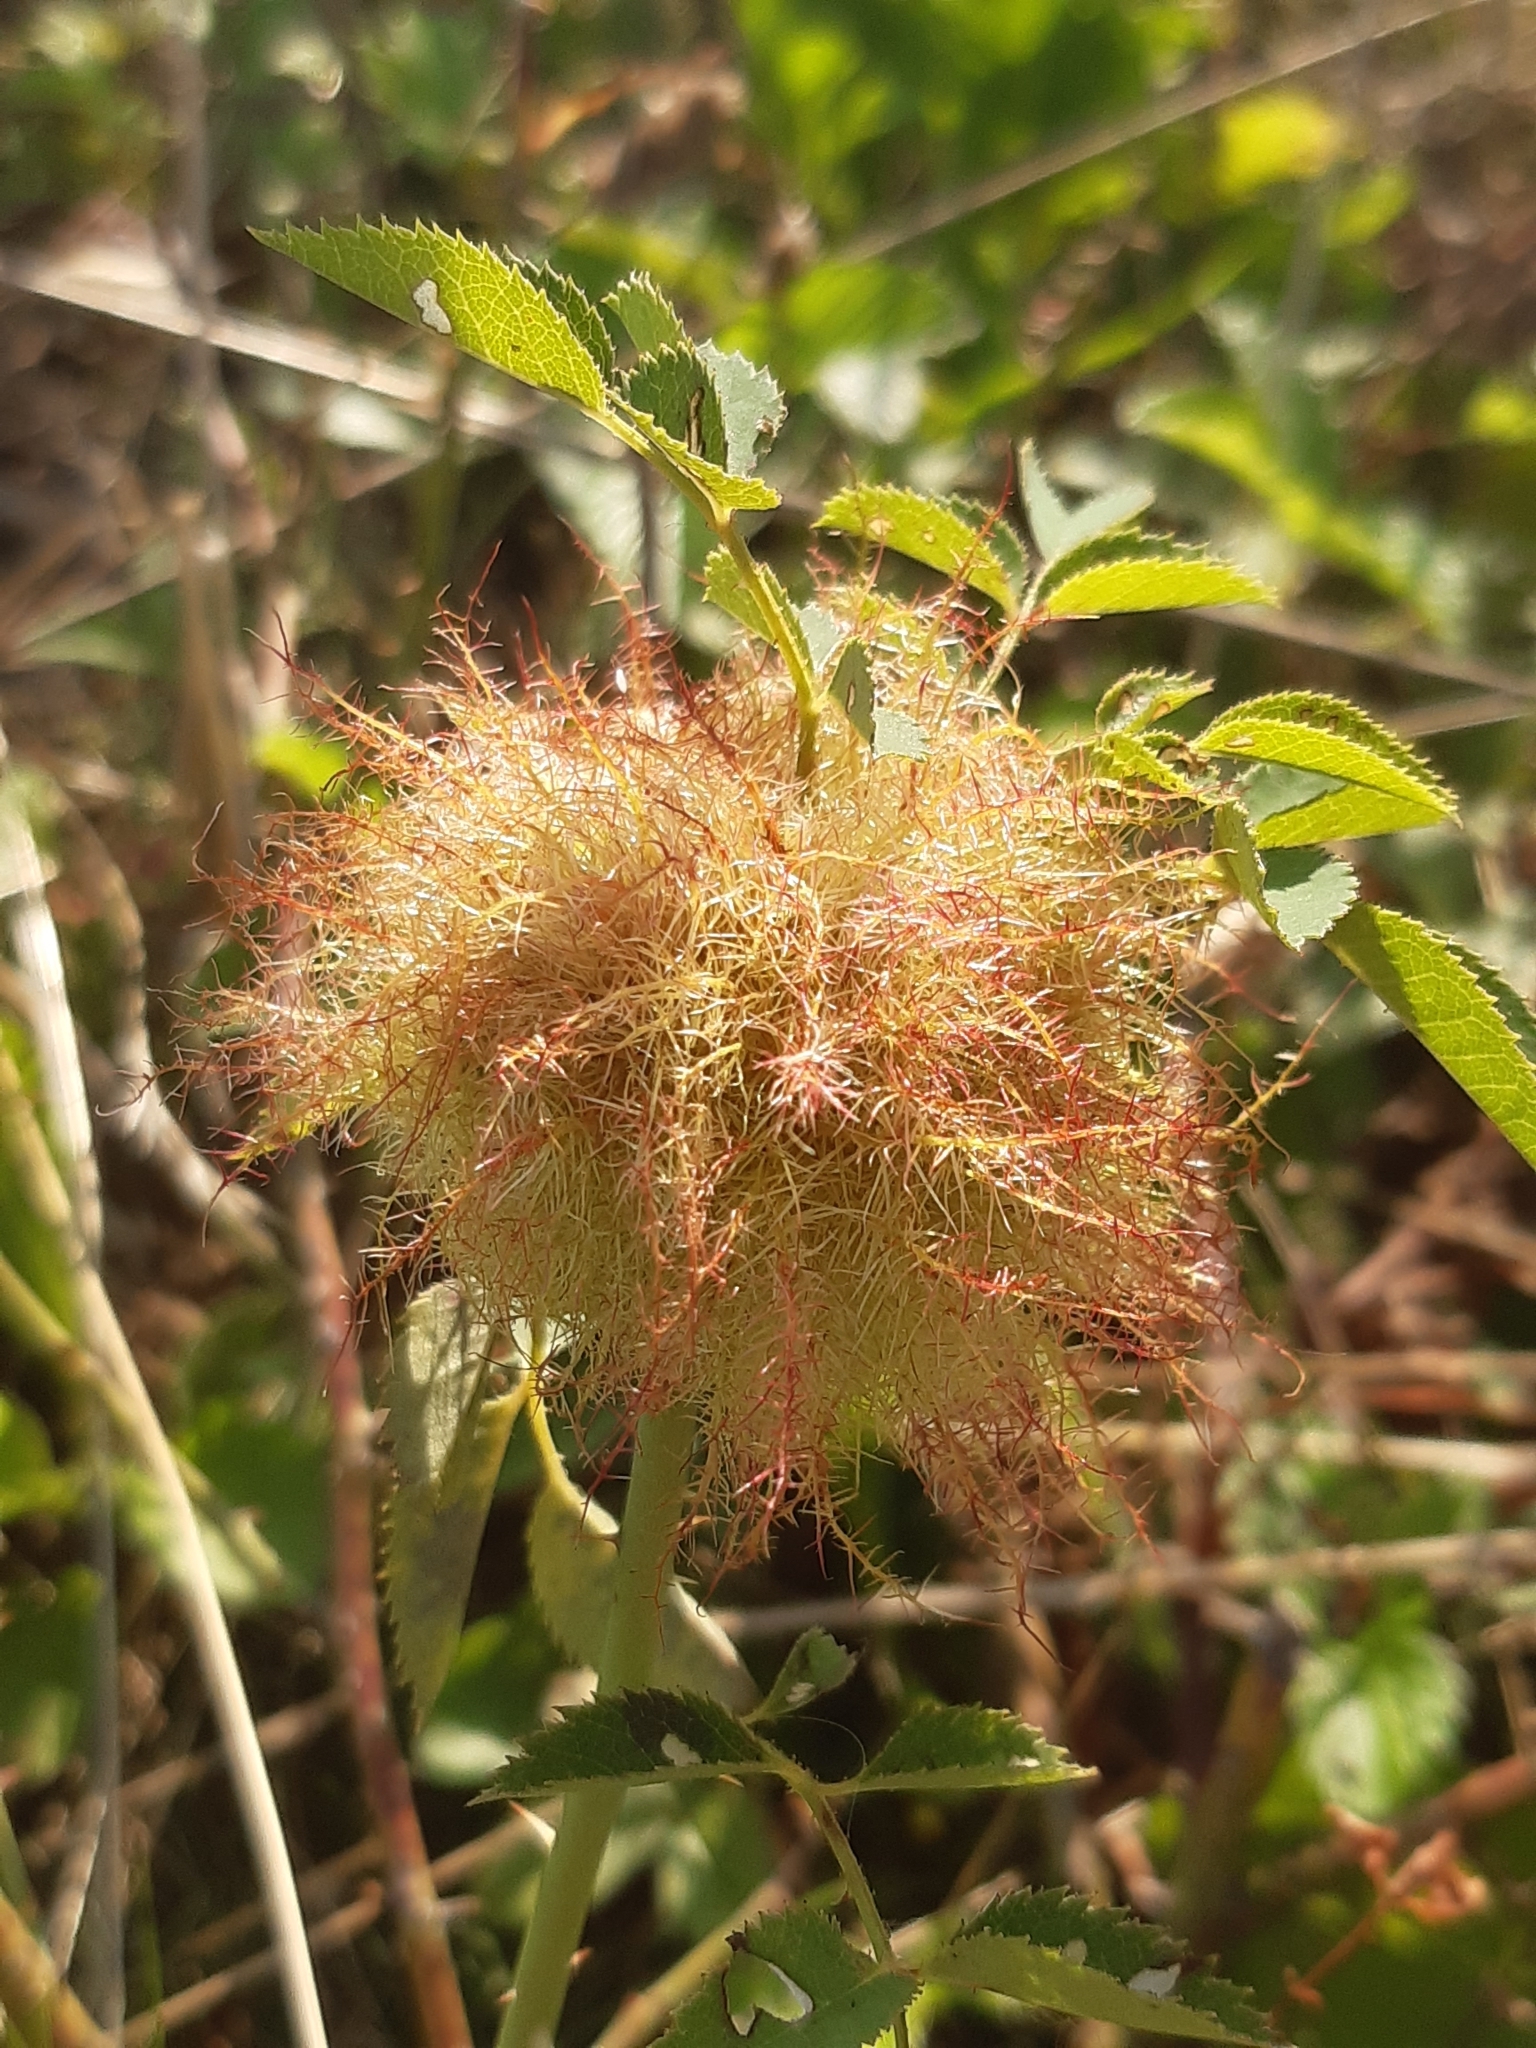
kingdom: Animalia
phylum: Arthropoda
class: Insecta
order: Hymenoptera
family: Cynipidae
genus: Diplolepis
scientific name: Diplolepis rosae
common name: Bedeguar gall
